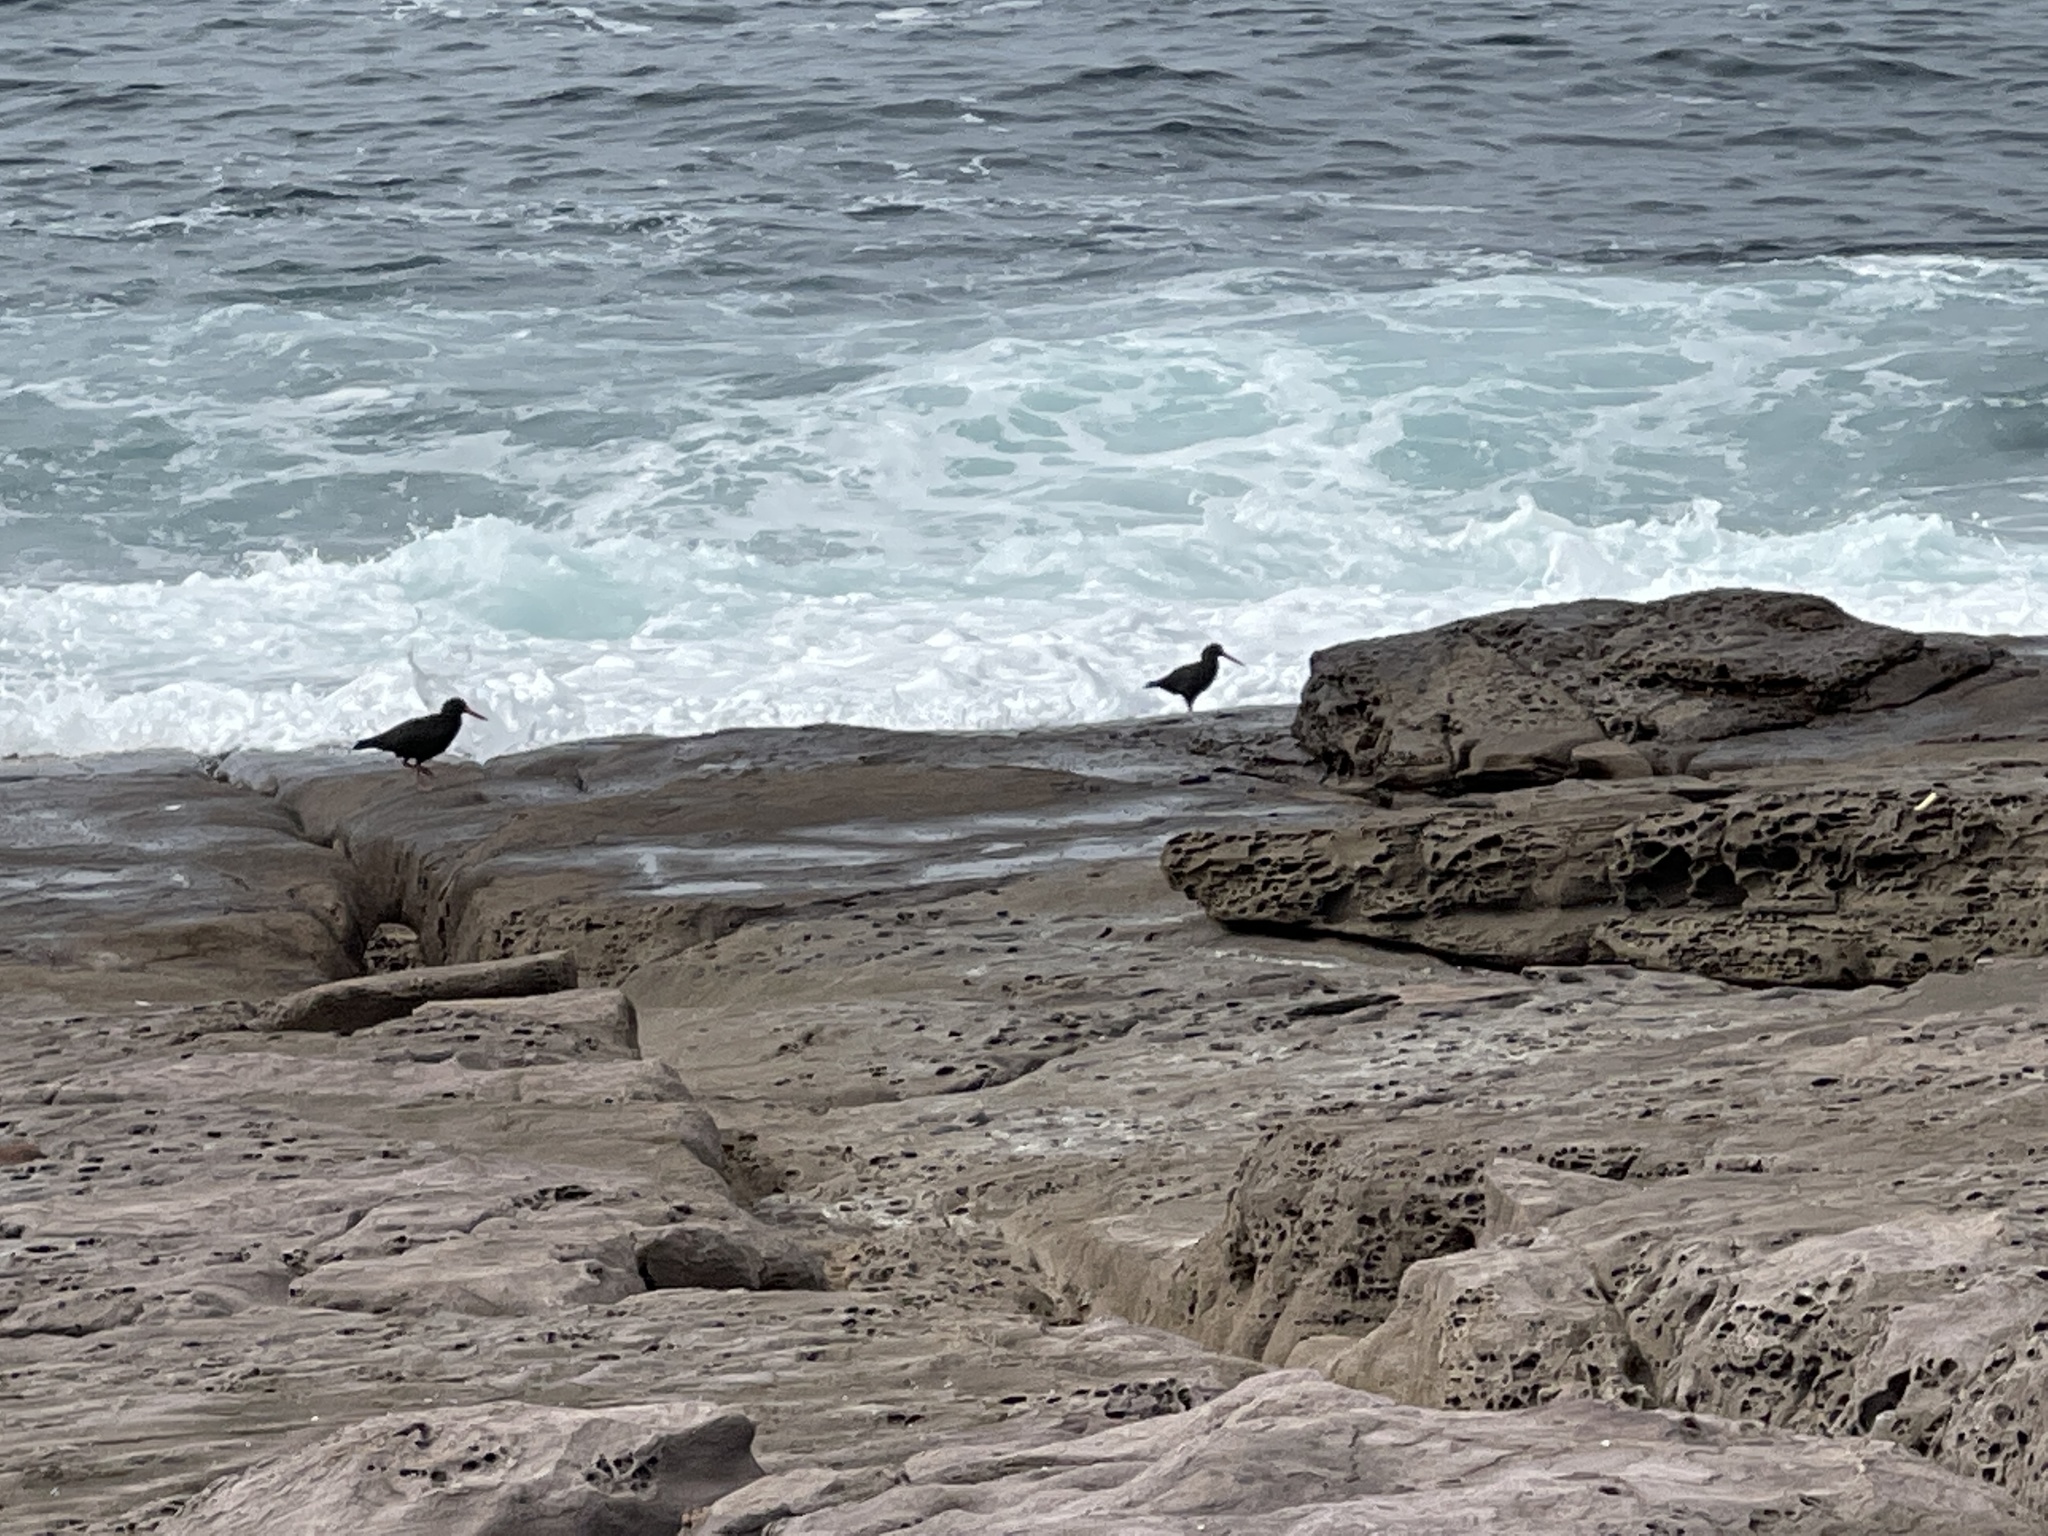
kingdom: Animalia
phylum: Chordata
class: Aves
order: Charadriiformes
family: Haematopodidae
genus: Haematopus
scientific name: Haematopus fuliginosus
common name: Sooty oystercatcher
